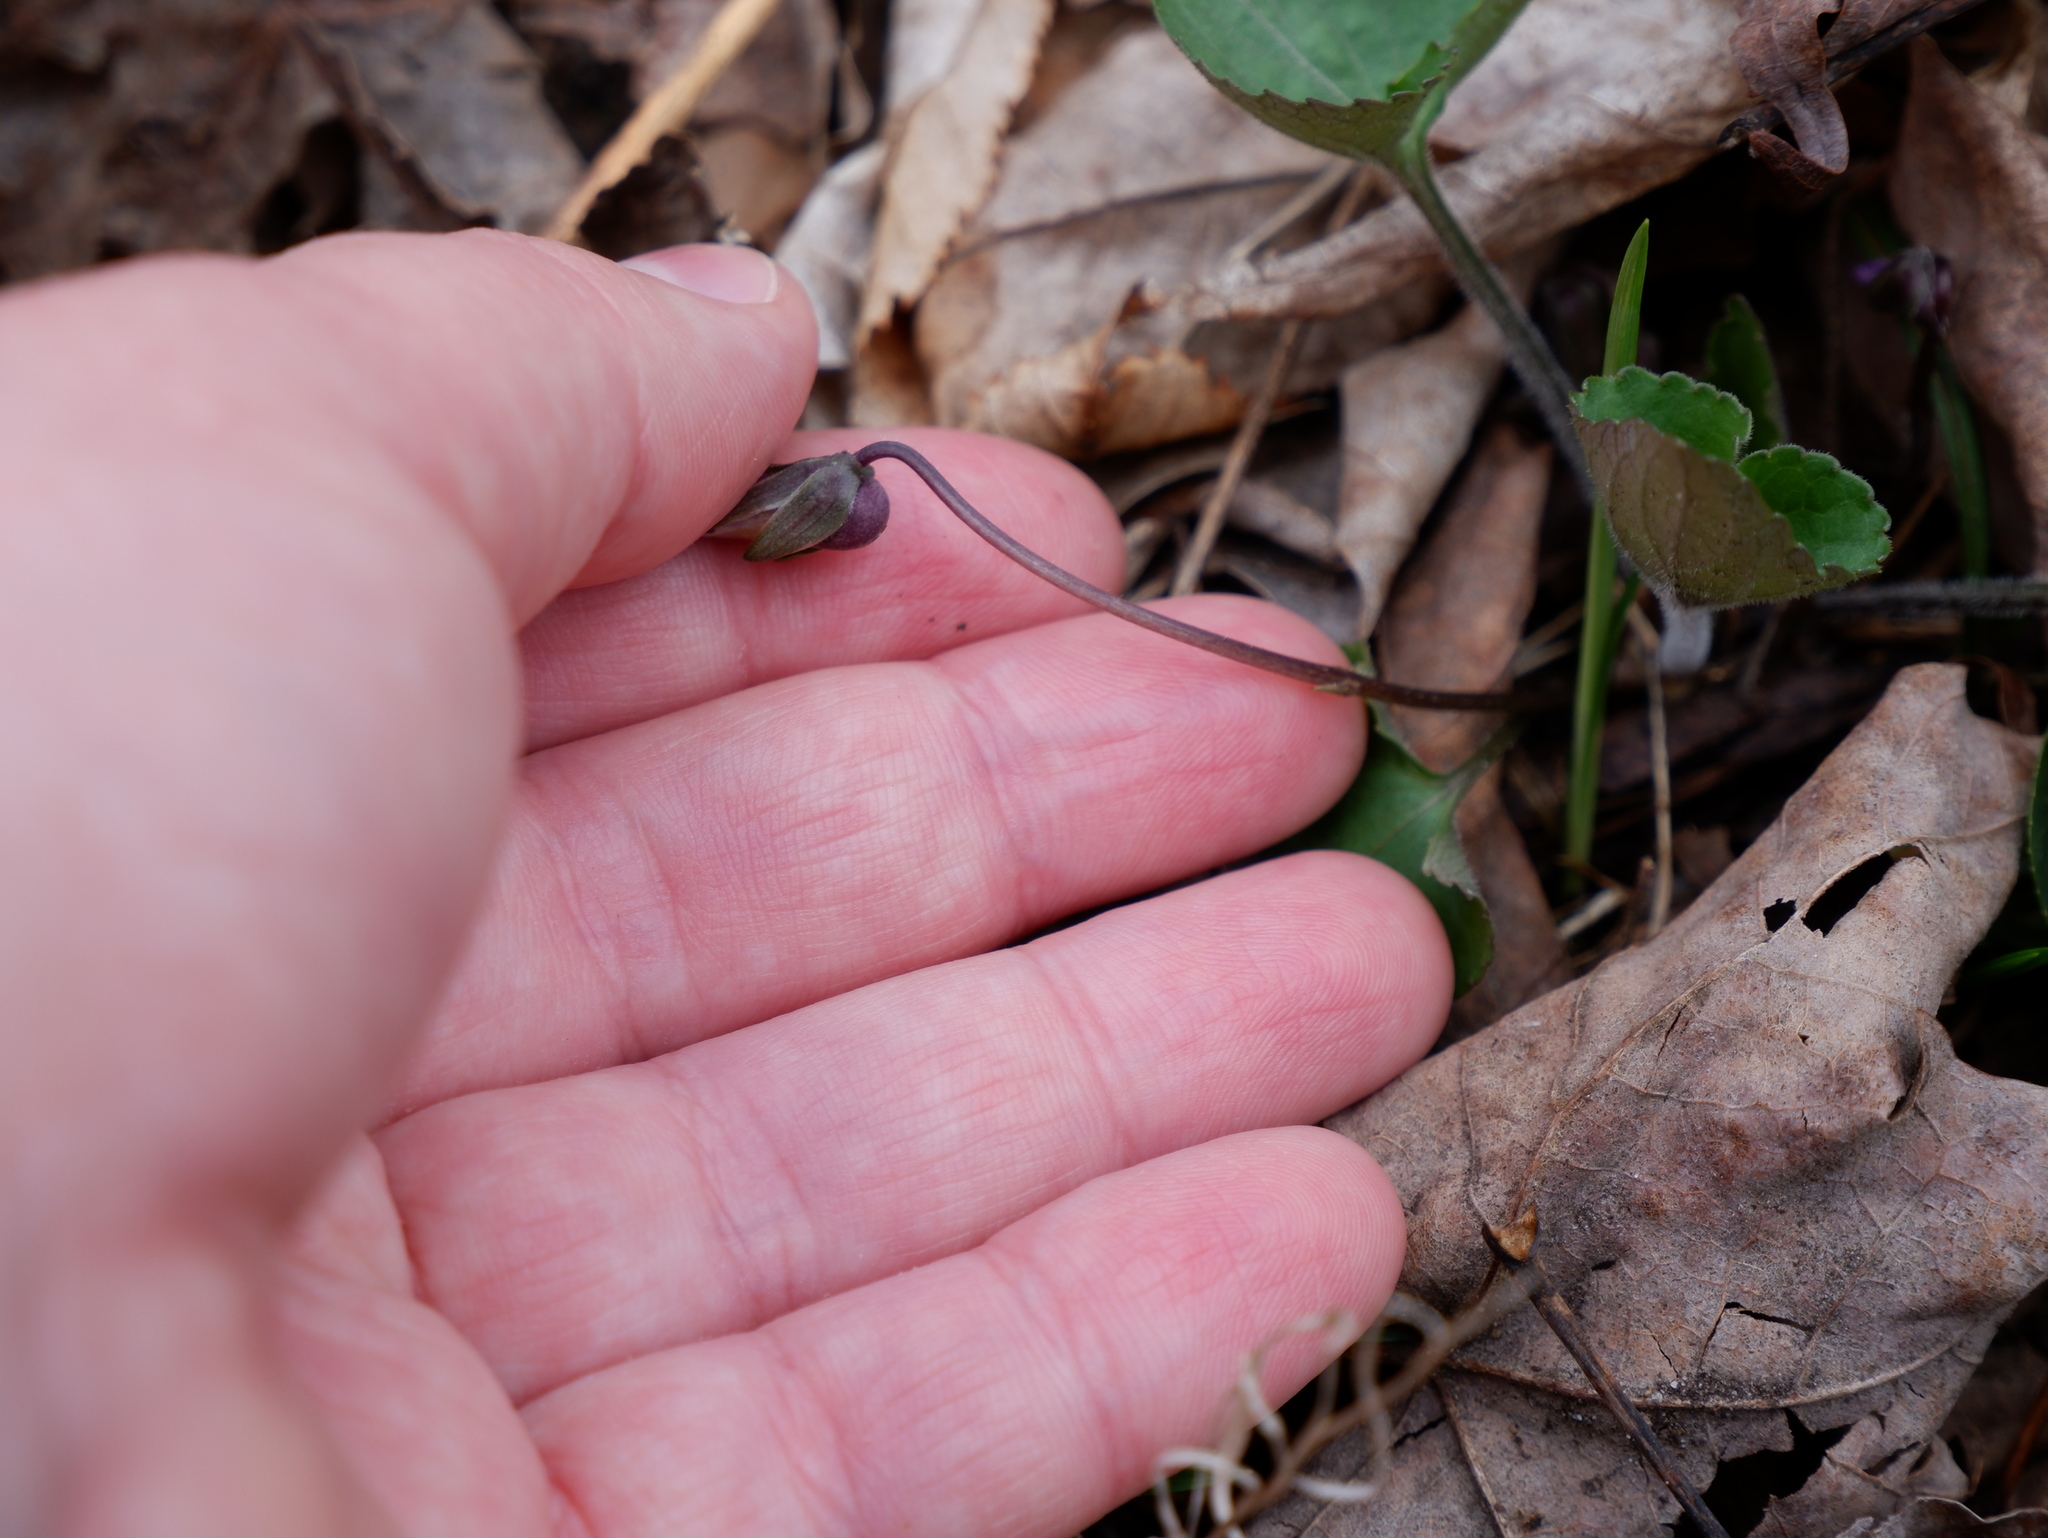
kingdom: Plantae
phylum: Tracheophyta
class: Magnoliopsida
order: Malpighiales
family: Violaceae
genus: Viola
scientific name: Viola sororia
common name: Dooryard violet
